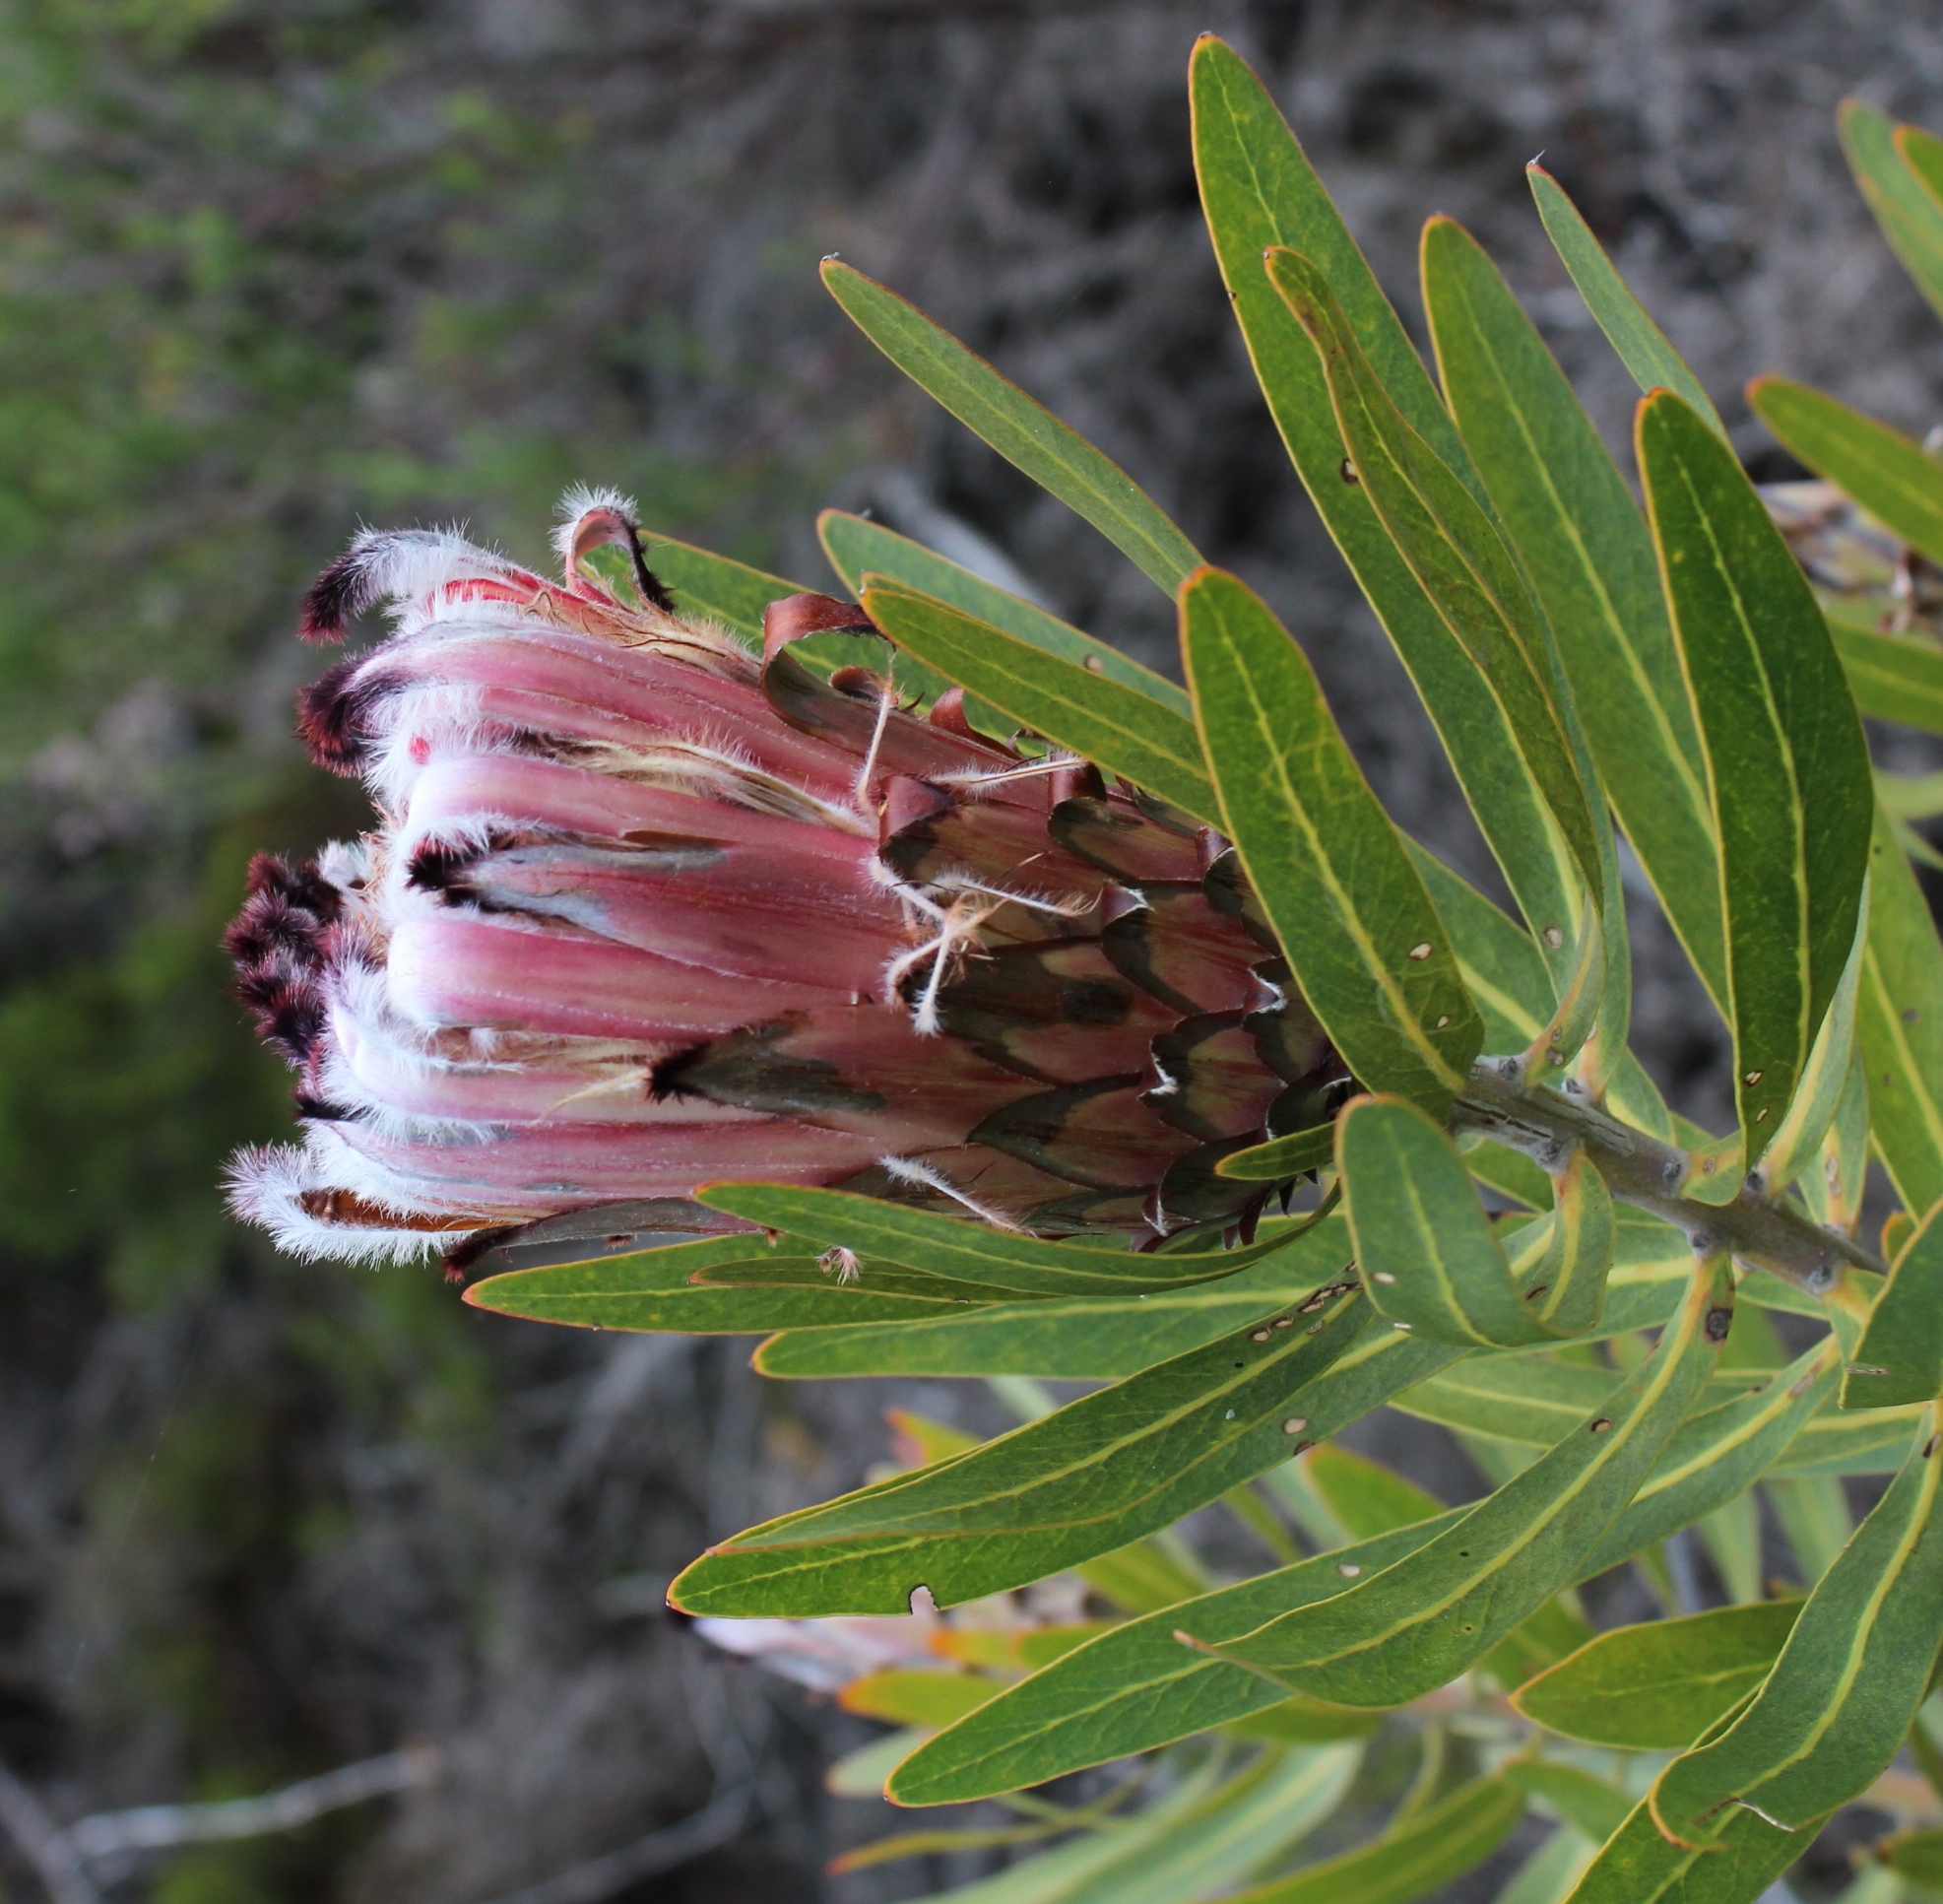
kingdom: Plantae
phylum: Tracheophyta
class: Magnoliopsida
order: Proteales
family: Proteaceae
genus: Protea
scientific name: Protea
